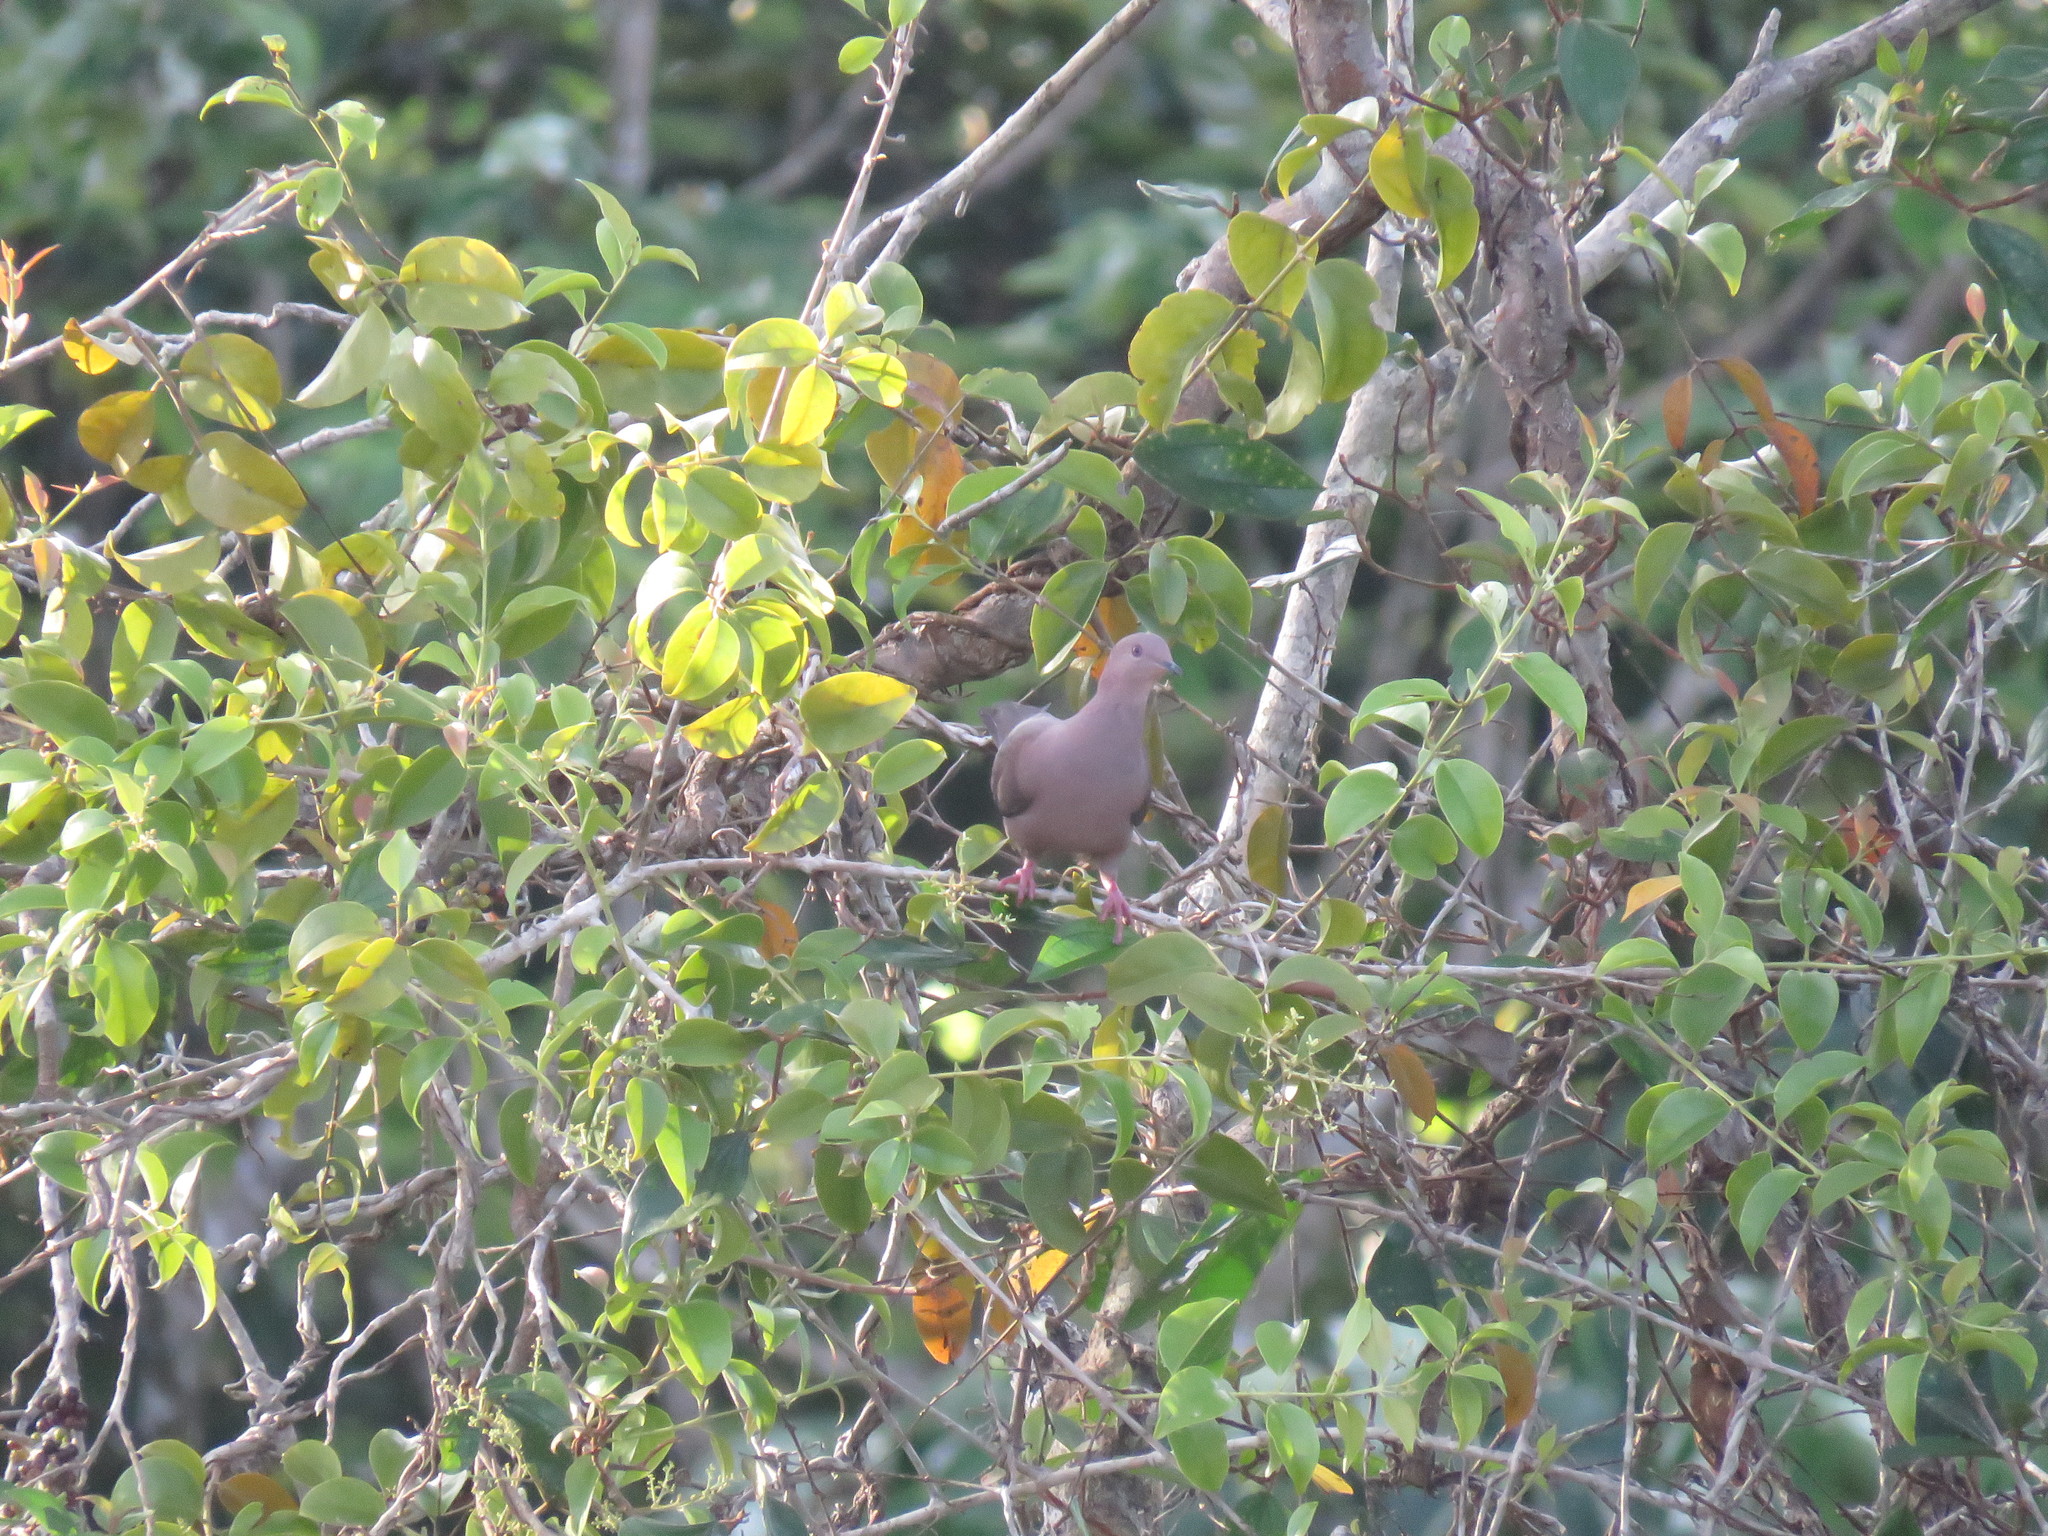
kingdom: Animalia
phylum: Chordata
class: Aves
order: Columbiformes
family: Columbidae
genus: Patagioenas
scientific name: Patagioenas subvinacea
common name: Ruddy pigeon
